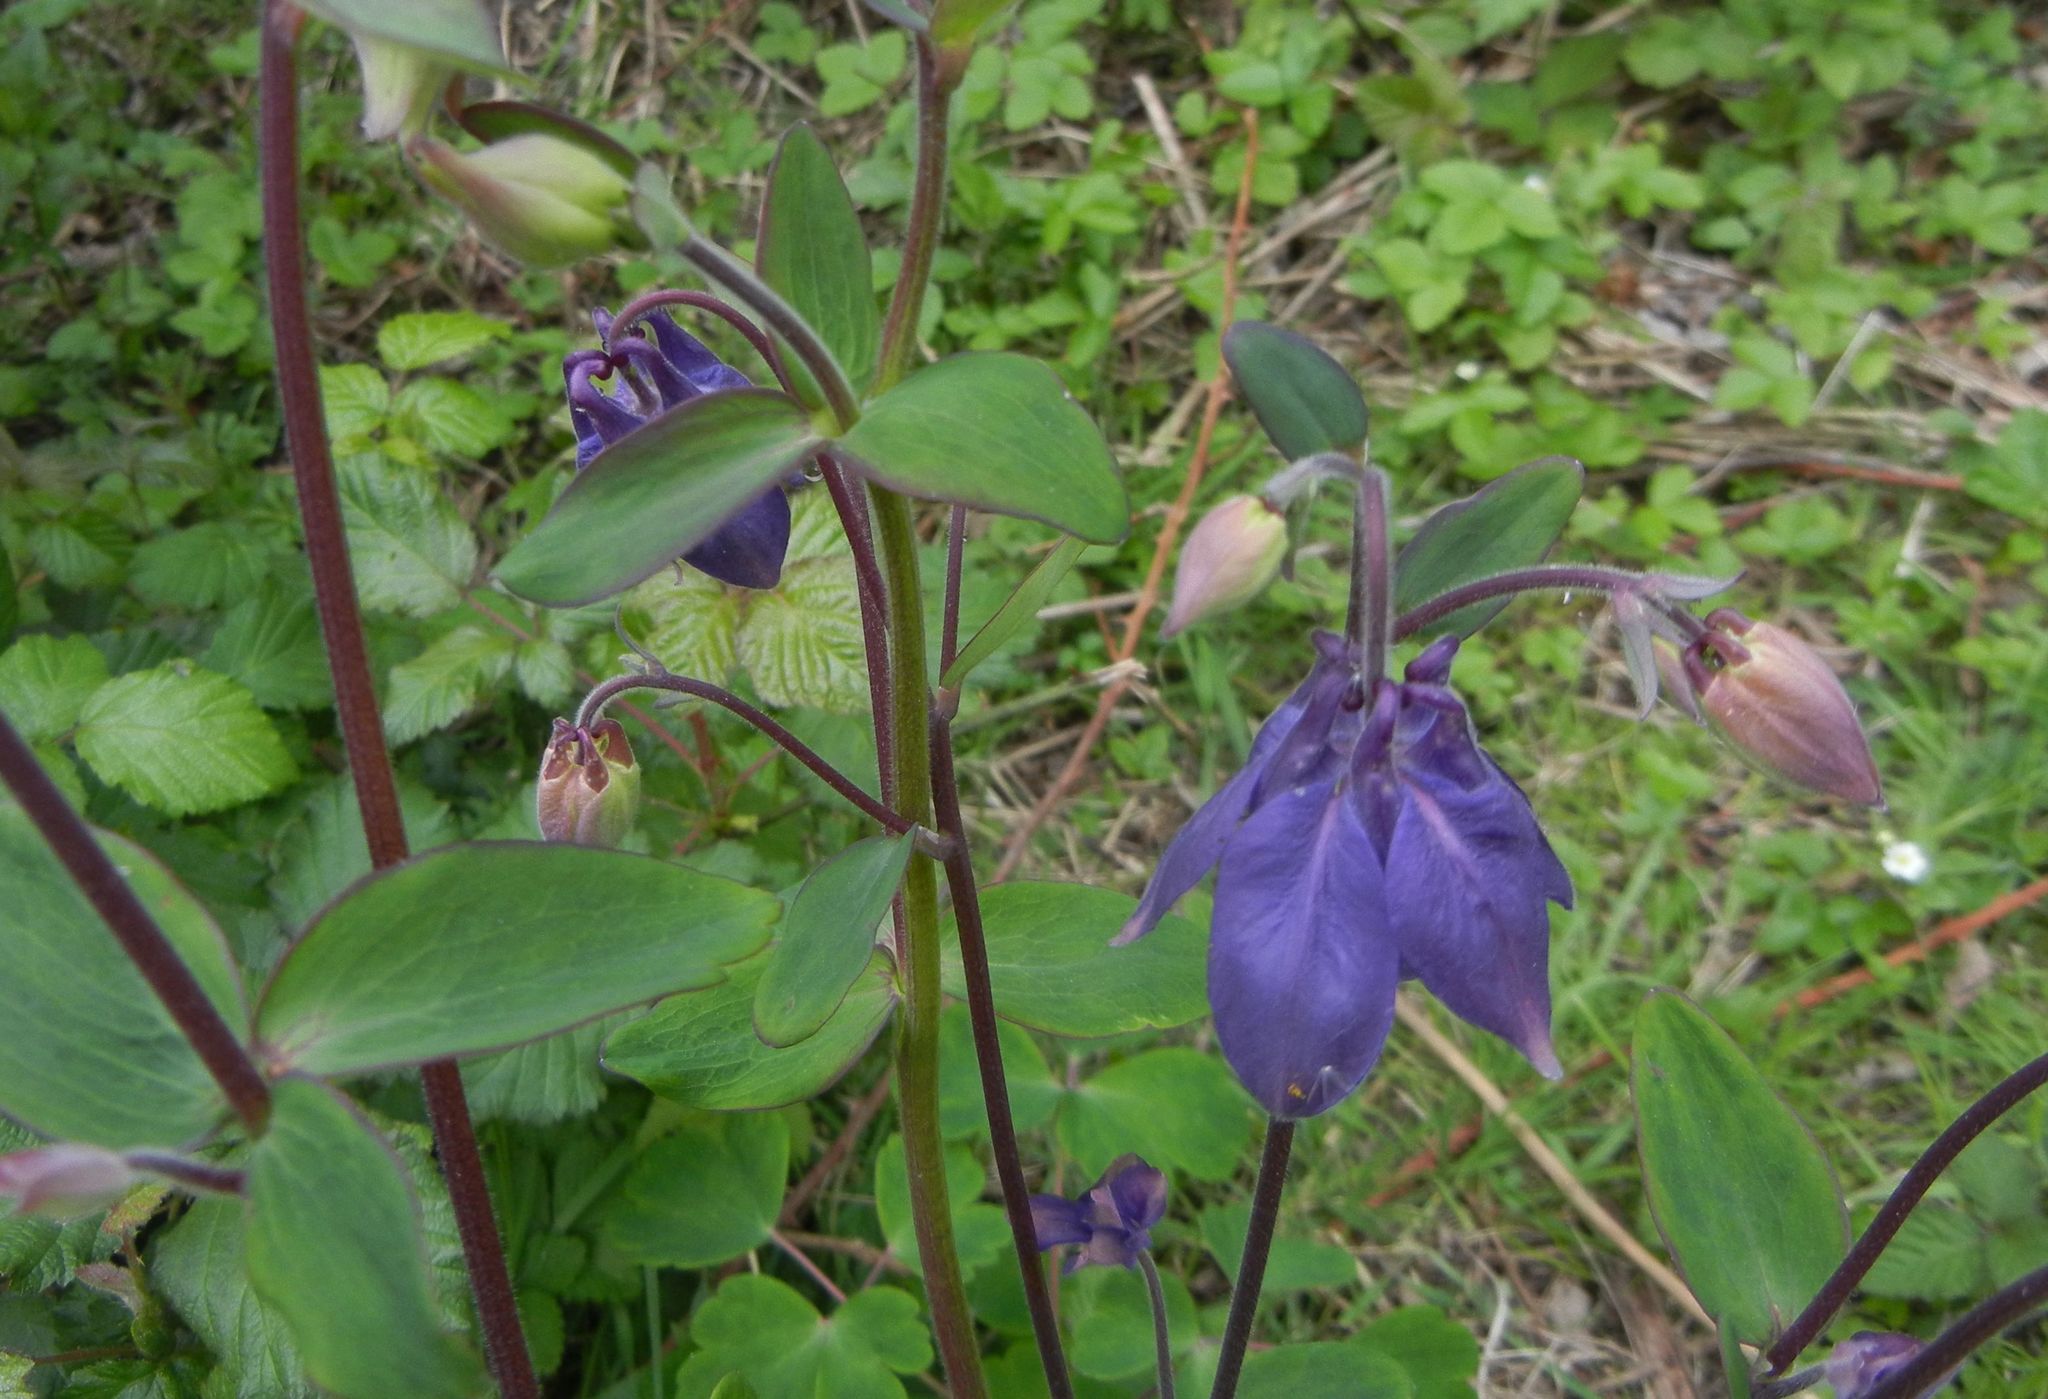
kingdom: Plantae
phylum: Tracheophyta
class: Magnoliopsida
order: Ranunculales
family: Ranunculaceae
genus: Aquilegia
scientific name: Aquilegia vulgaris
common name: Columbine
